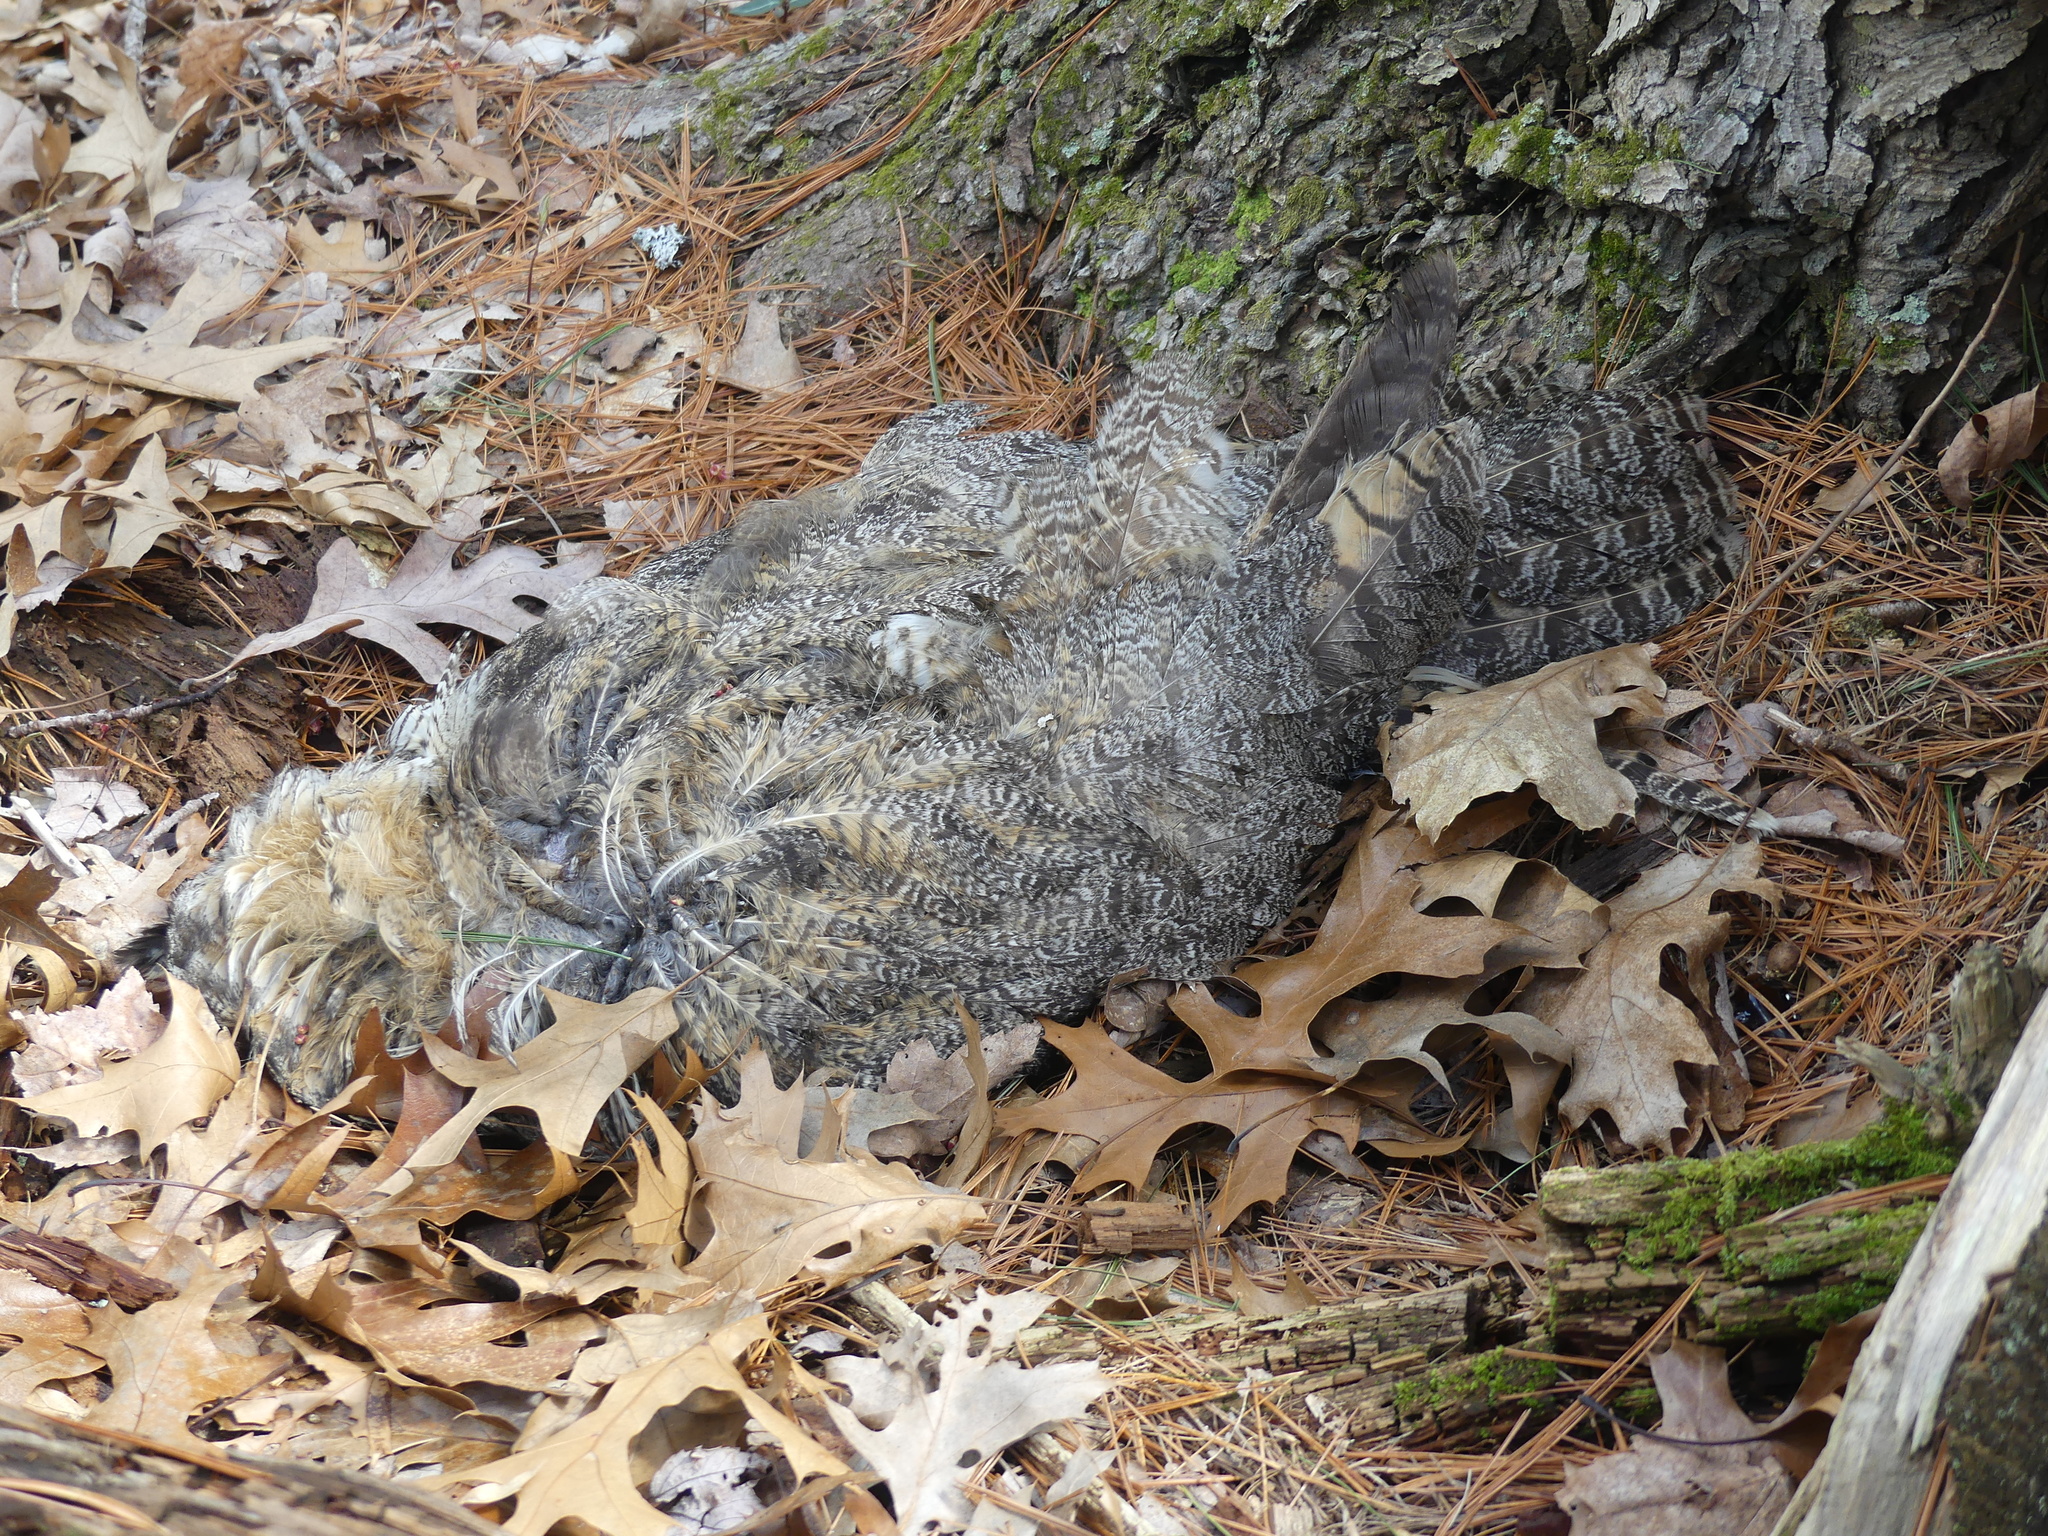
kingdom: Animalia
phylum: Chordata
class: Aves
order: Strigiformes
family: Strigidae
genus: Bubo
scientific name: Bubo virginianus
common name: Great horned owl
